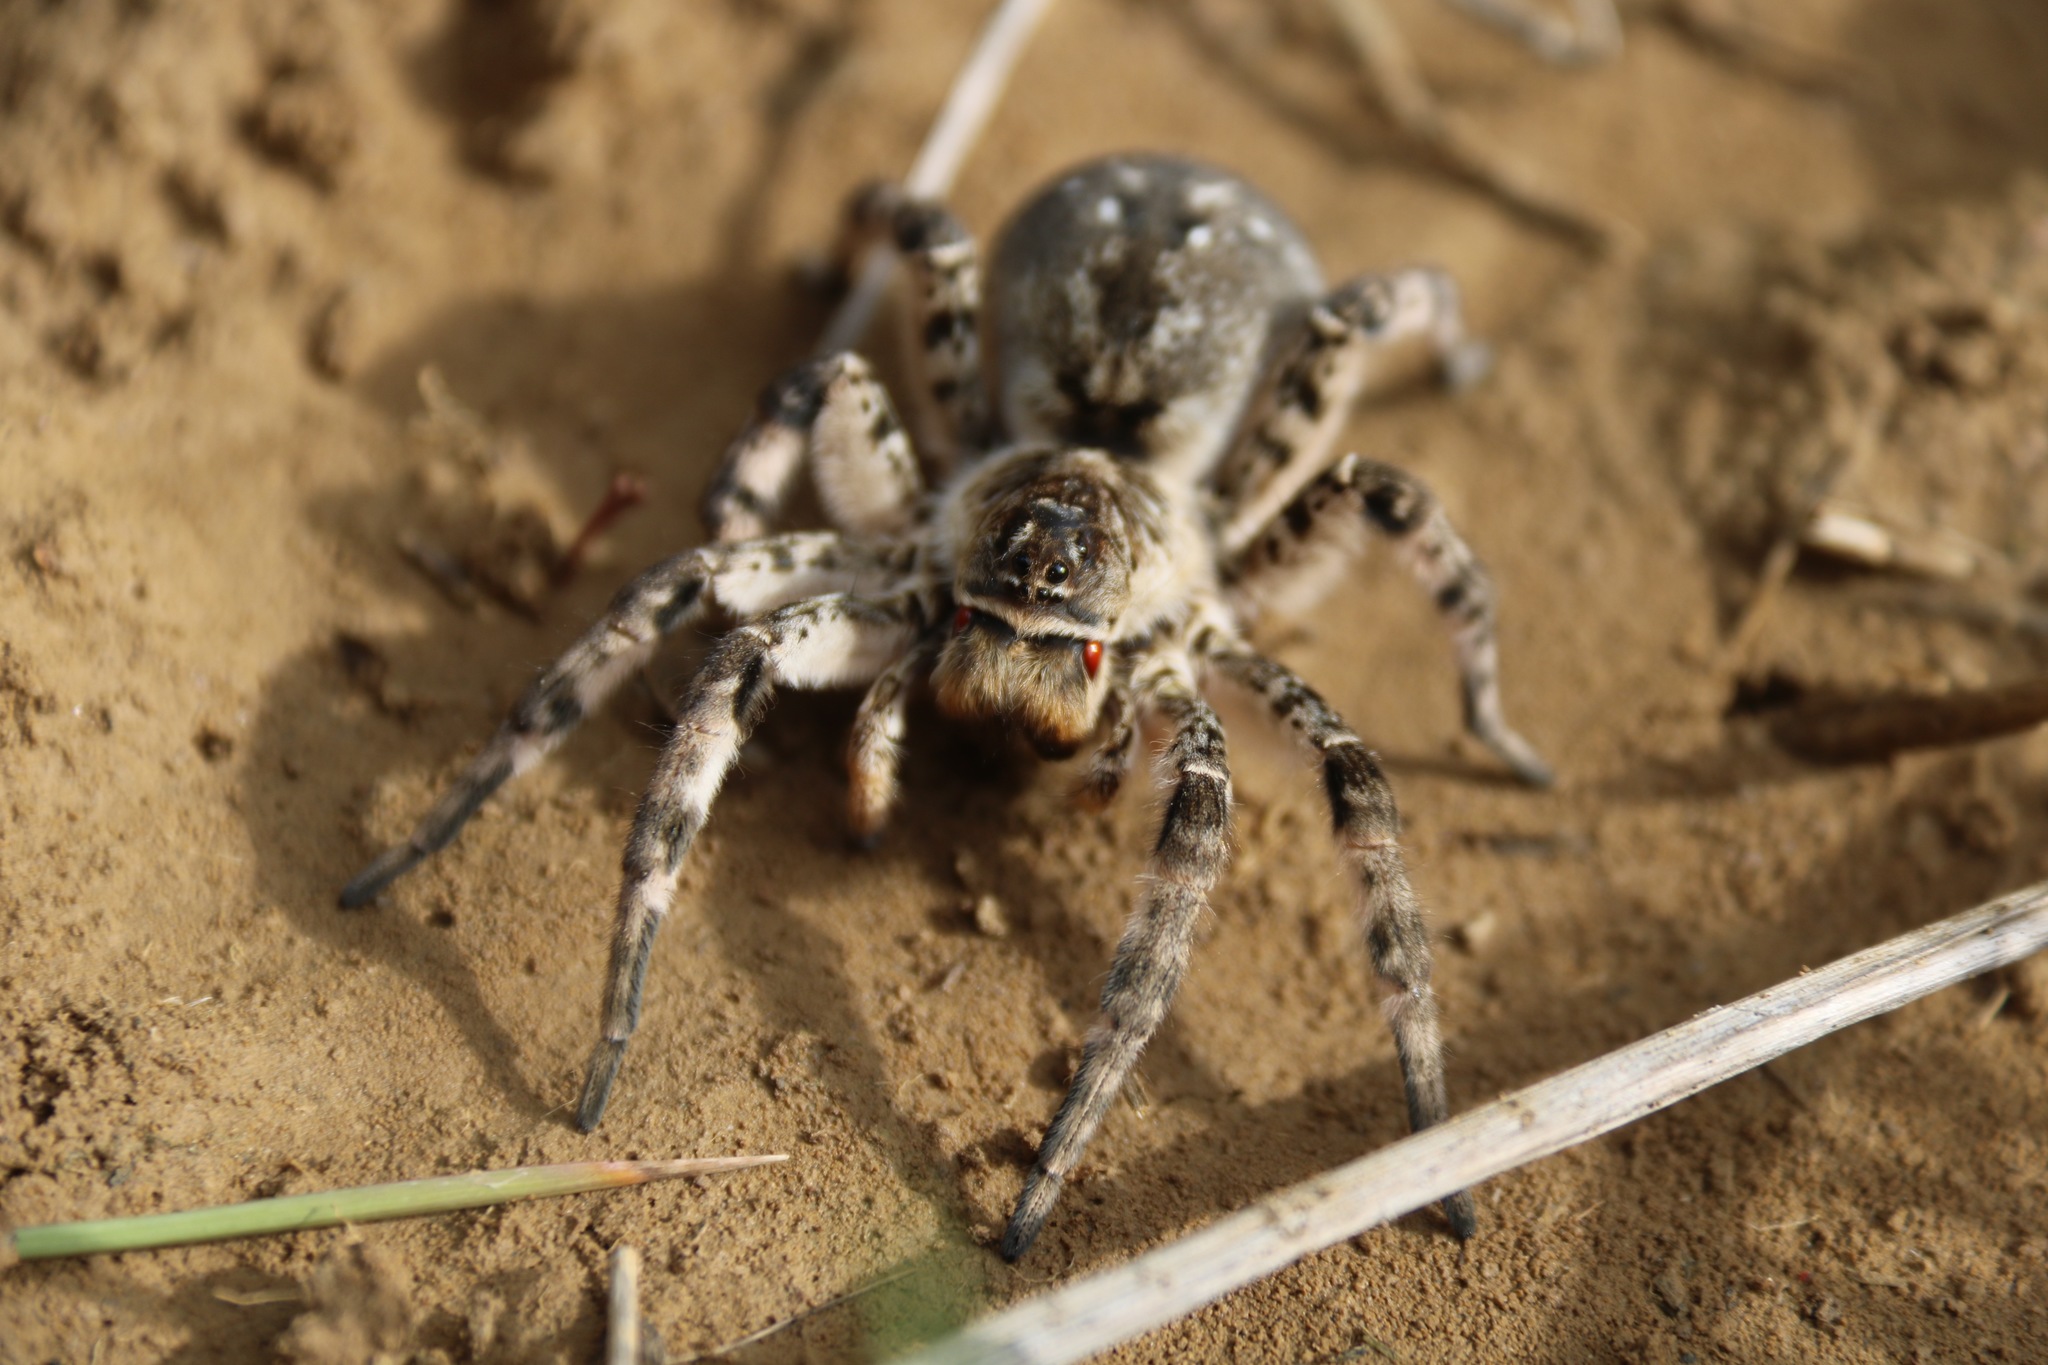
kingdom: Animalia
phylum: Arthropoda
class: Arachnida
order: Araneae
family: Lycosidae
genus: Lycosa
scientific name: Lycosa singoriensis
